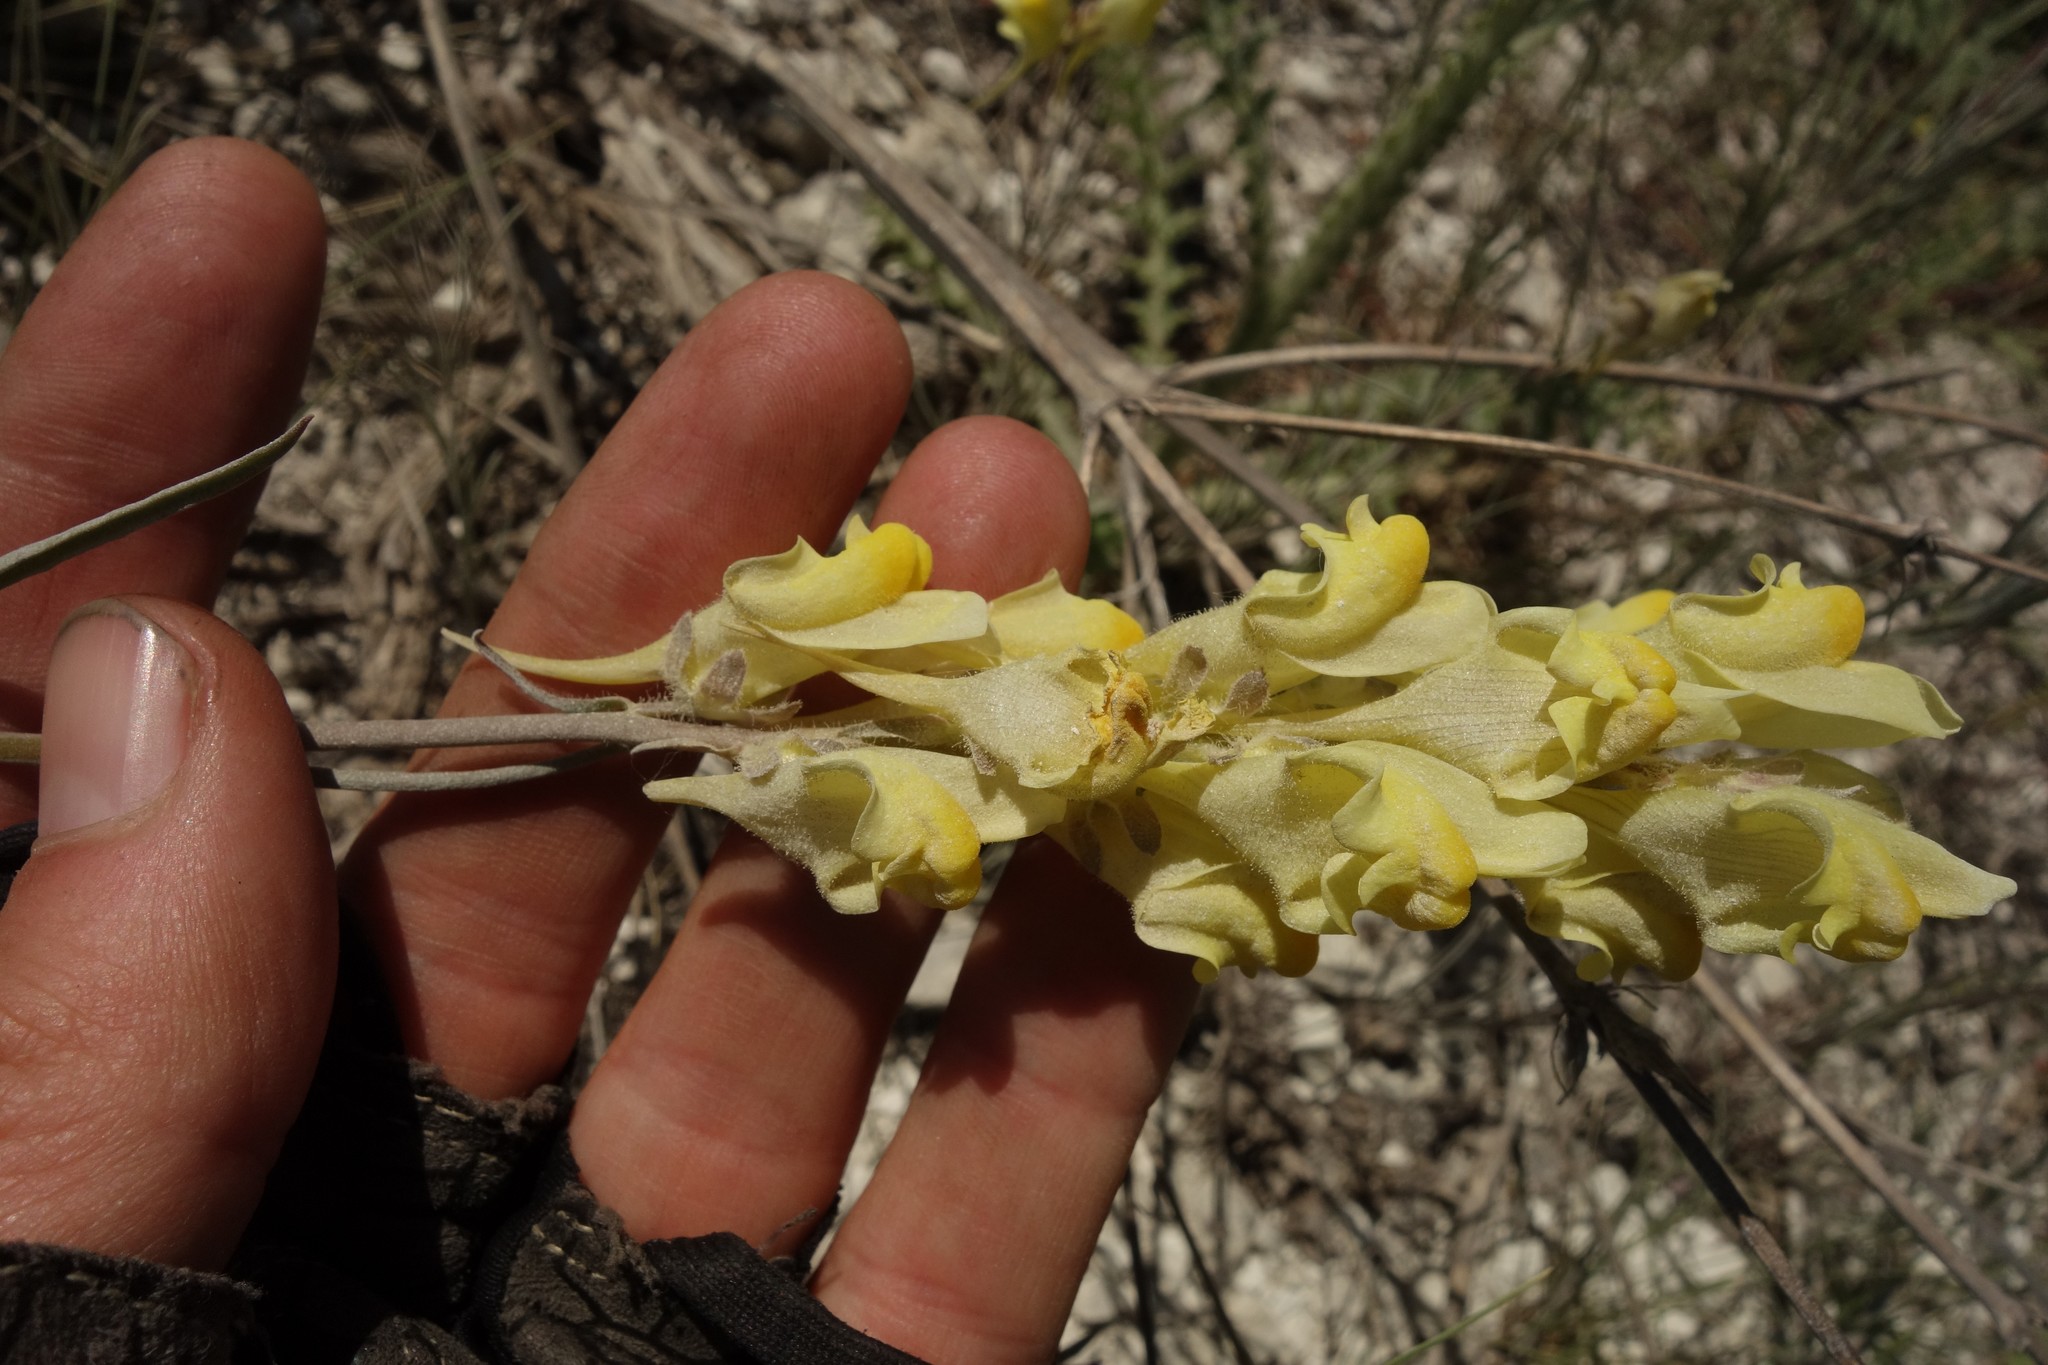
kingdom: Plantae
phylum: Tracheophyta
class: Magnoliopsida
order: Lamiales
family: Plantaginaceae
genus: Linaria
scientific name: Linaria macroura
